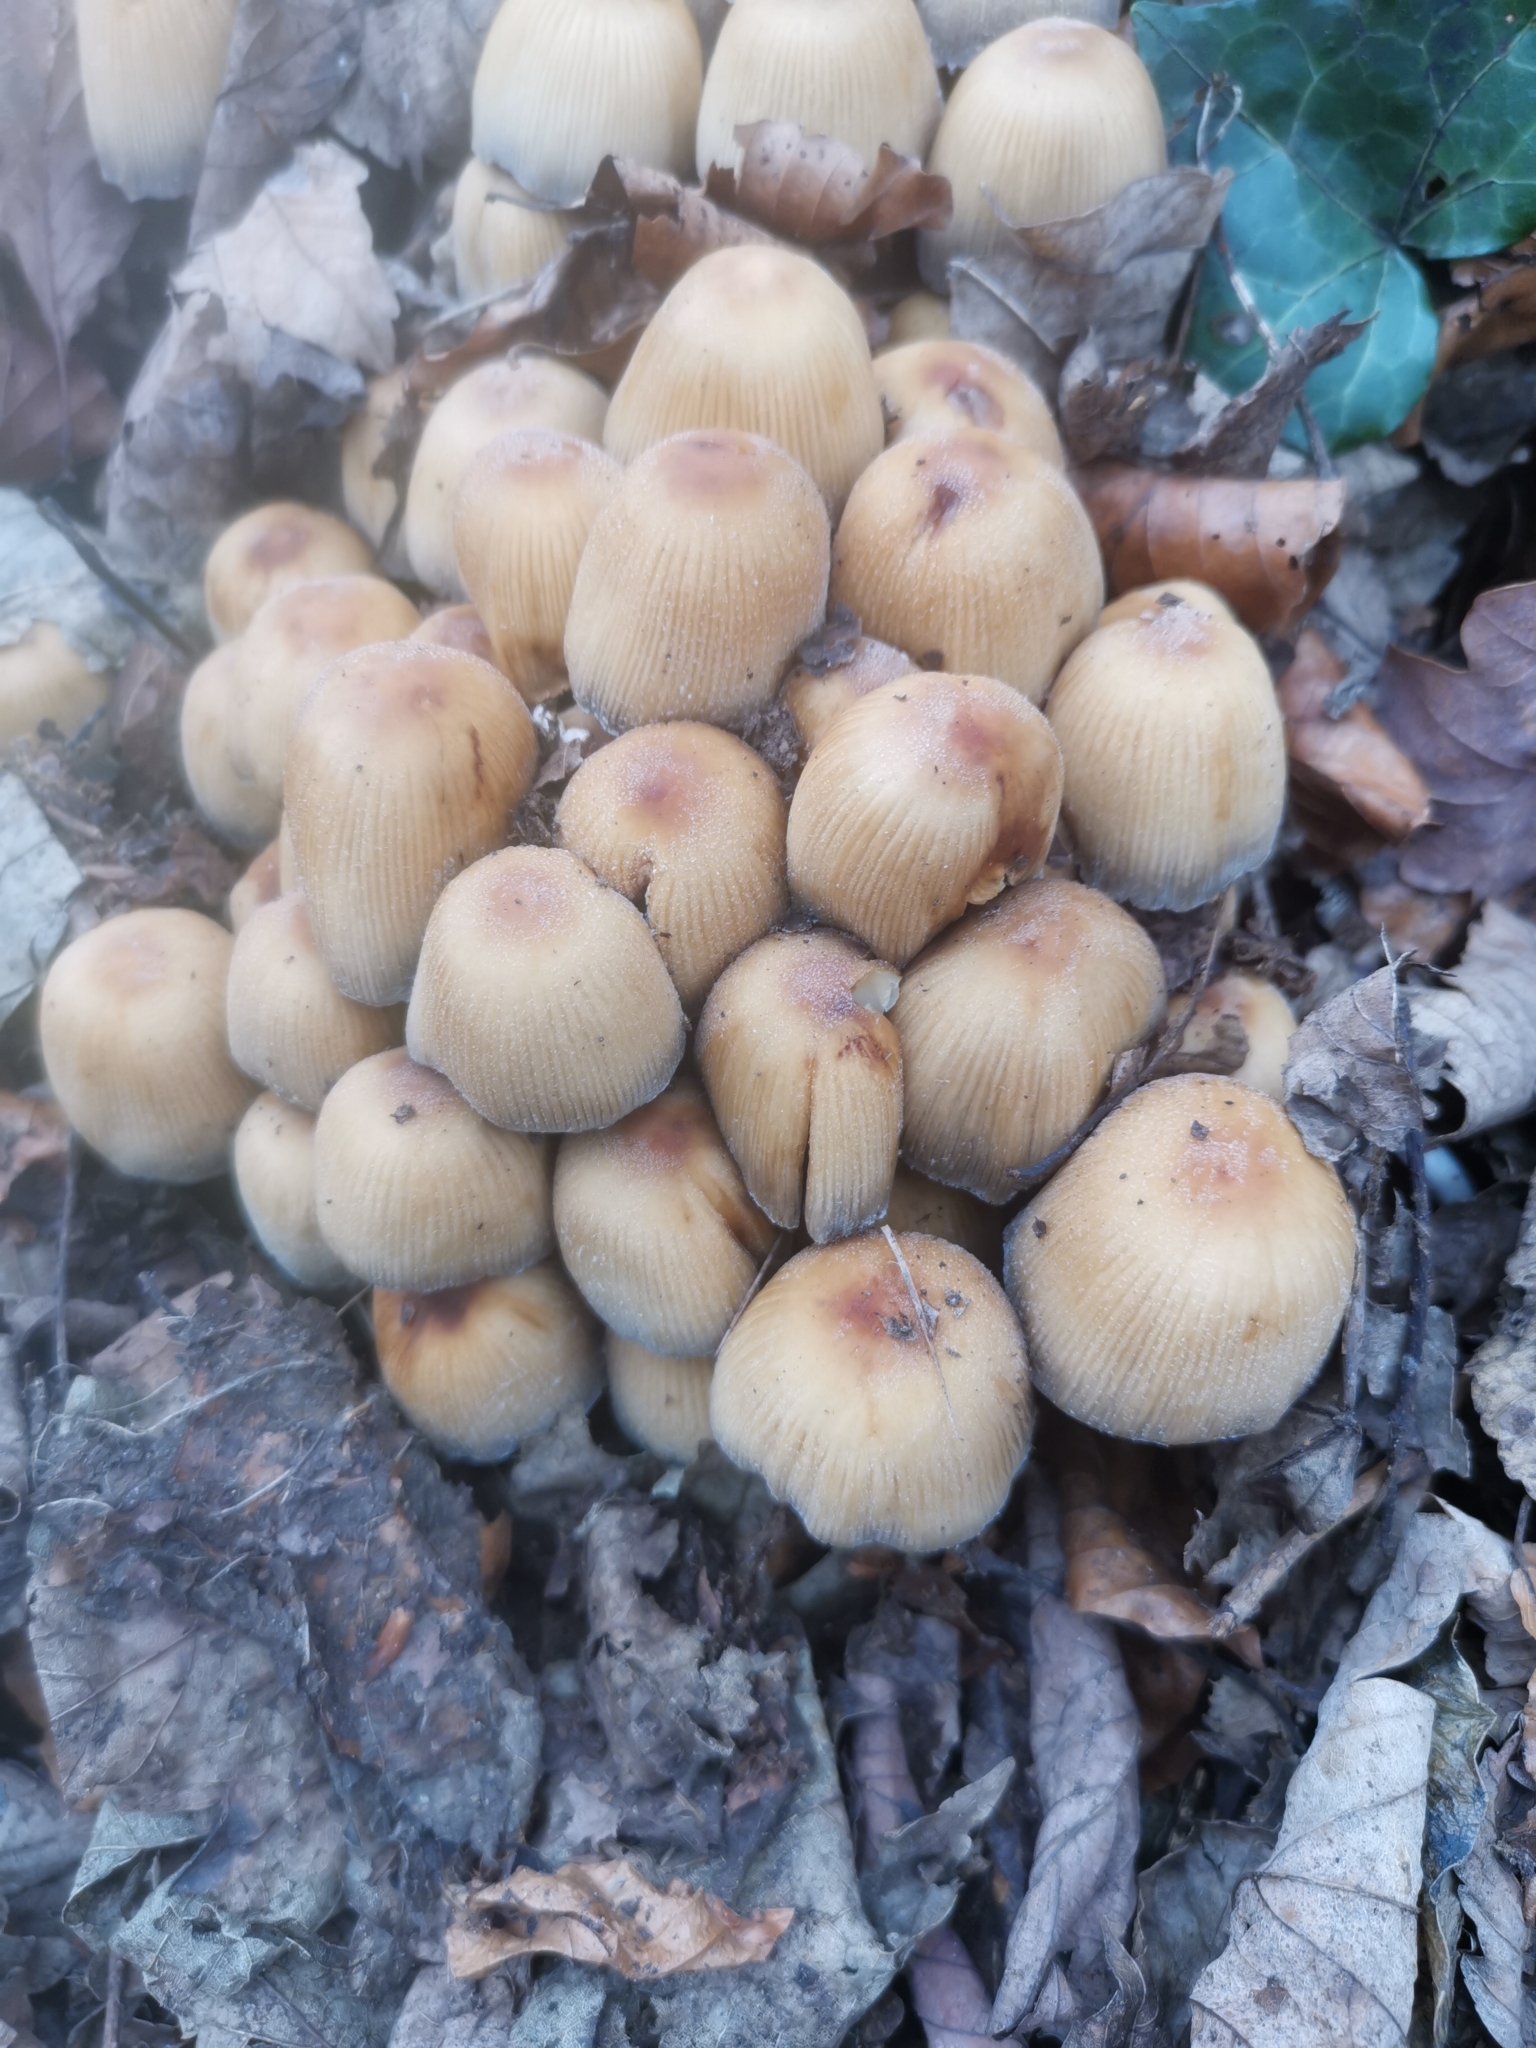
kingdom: Fungi
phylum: Basidiomycota
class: Agaricomycetes
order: Agaricales
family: Psathyrellaceae
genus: Coprinellus
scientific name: Coprinellus micaceus
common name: Glistening ink-cap
